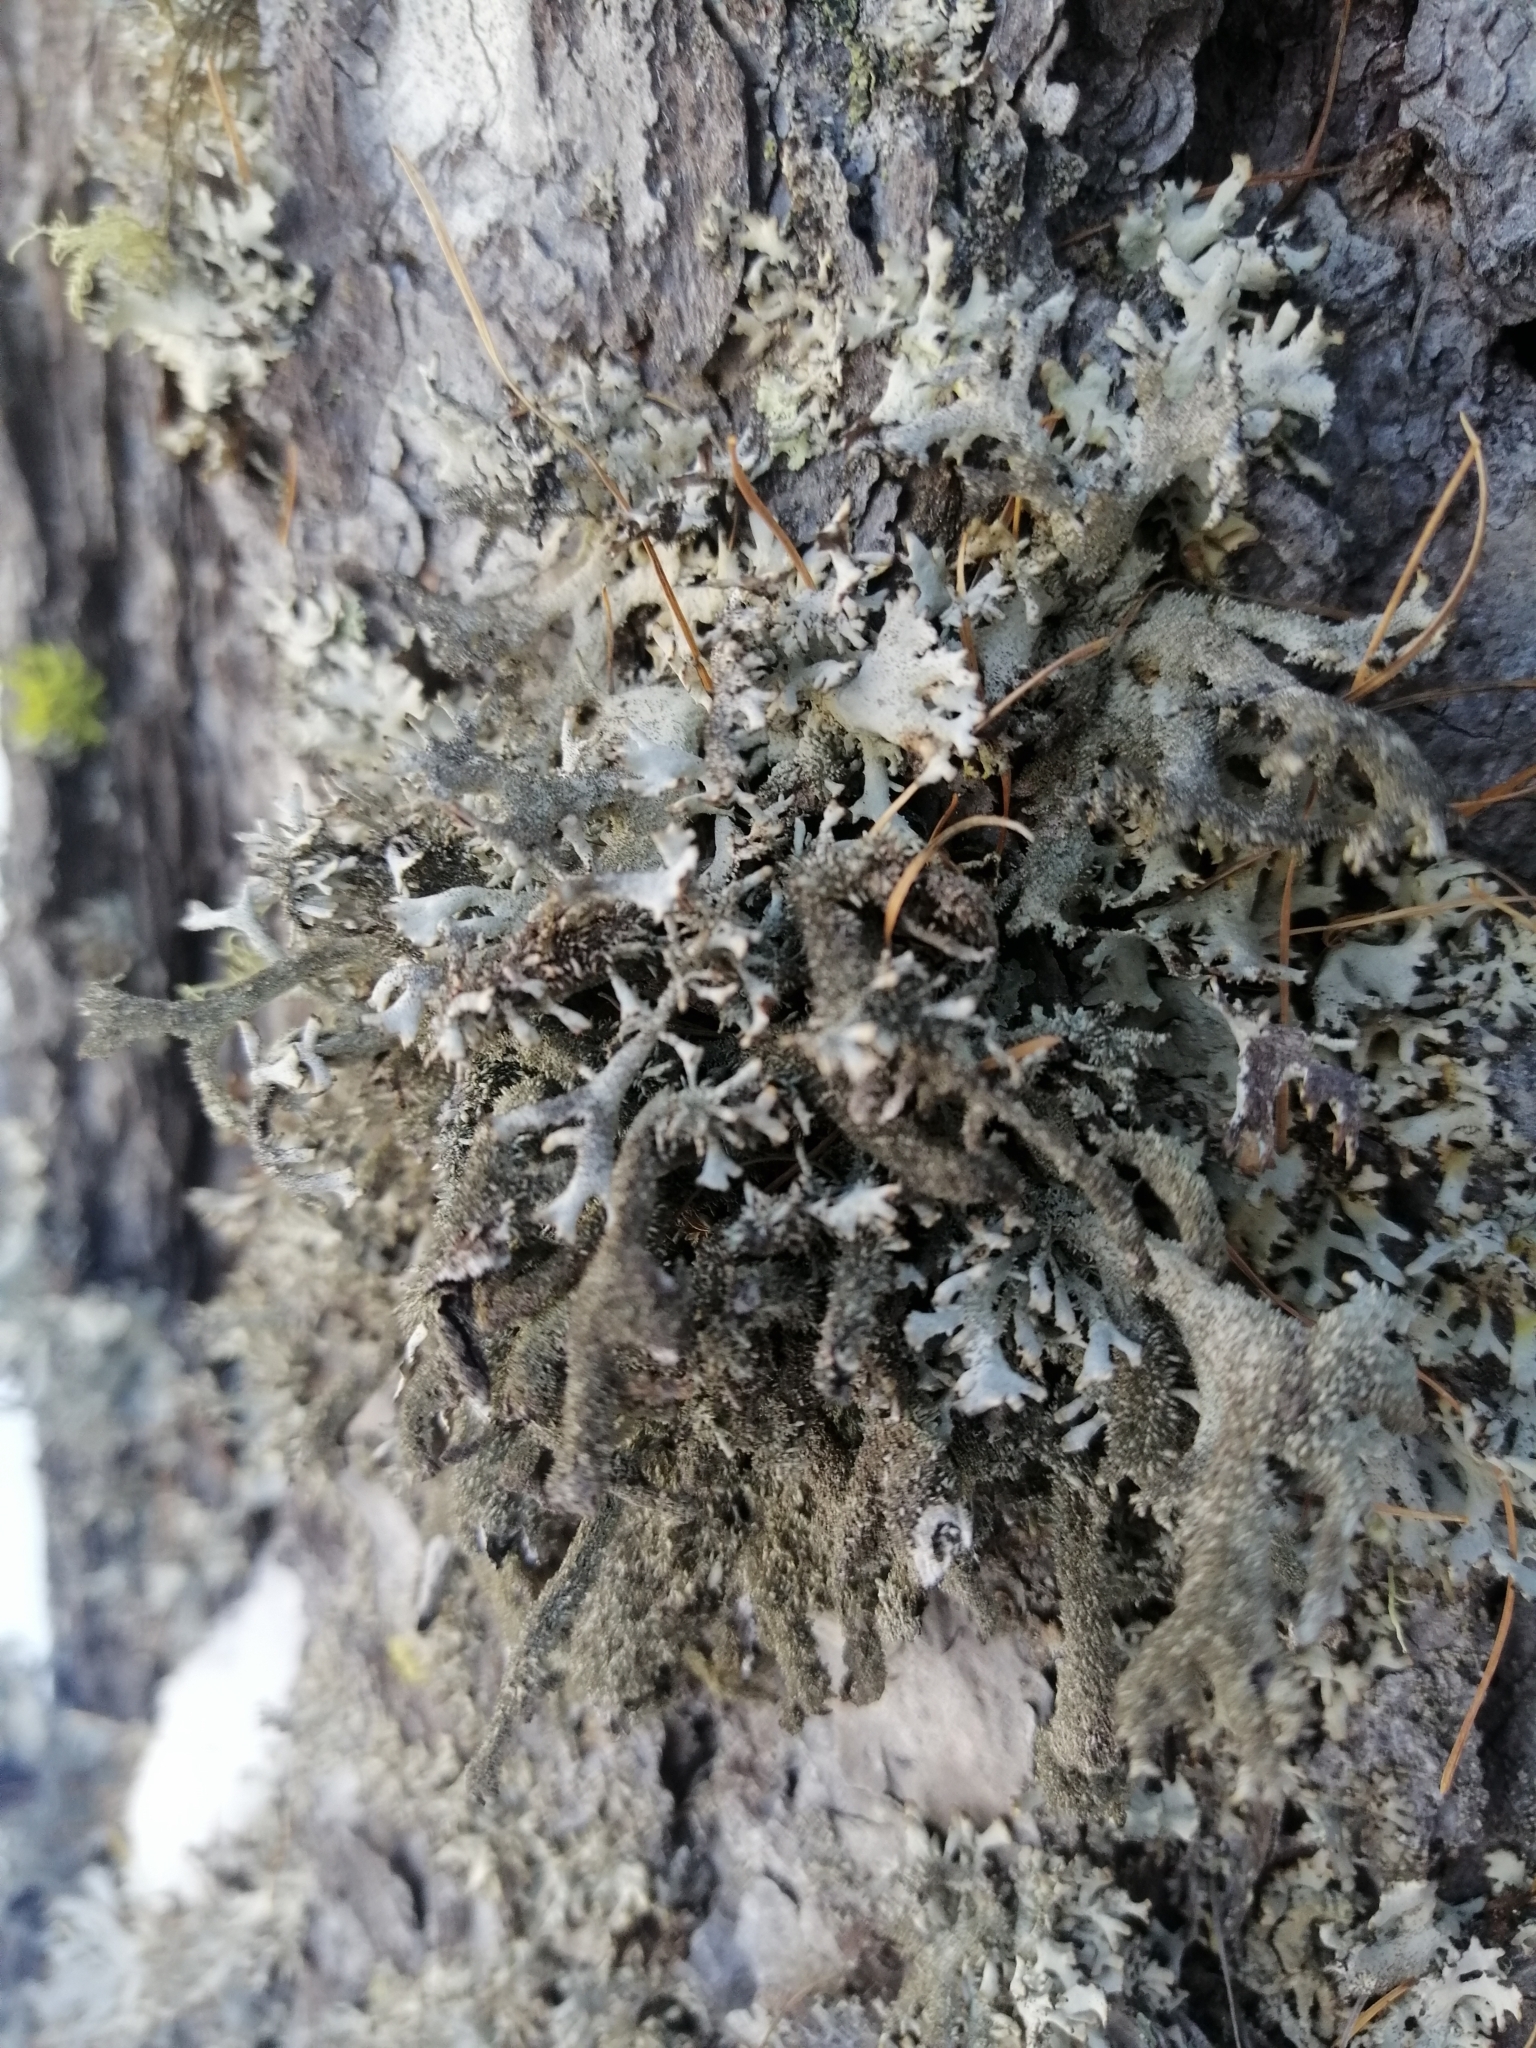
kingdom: Fungi
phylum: Ascomycota
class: Lecanoromycetes
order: Lecanorales
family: Parmeliaceae
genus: Pseudevernia
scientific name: Pseudevernia furfuracea
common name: Tree moss
